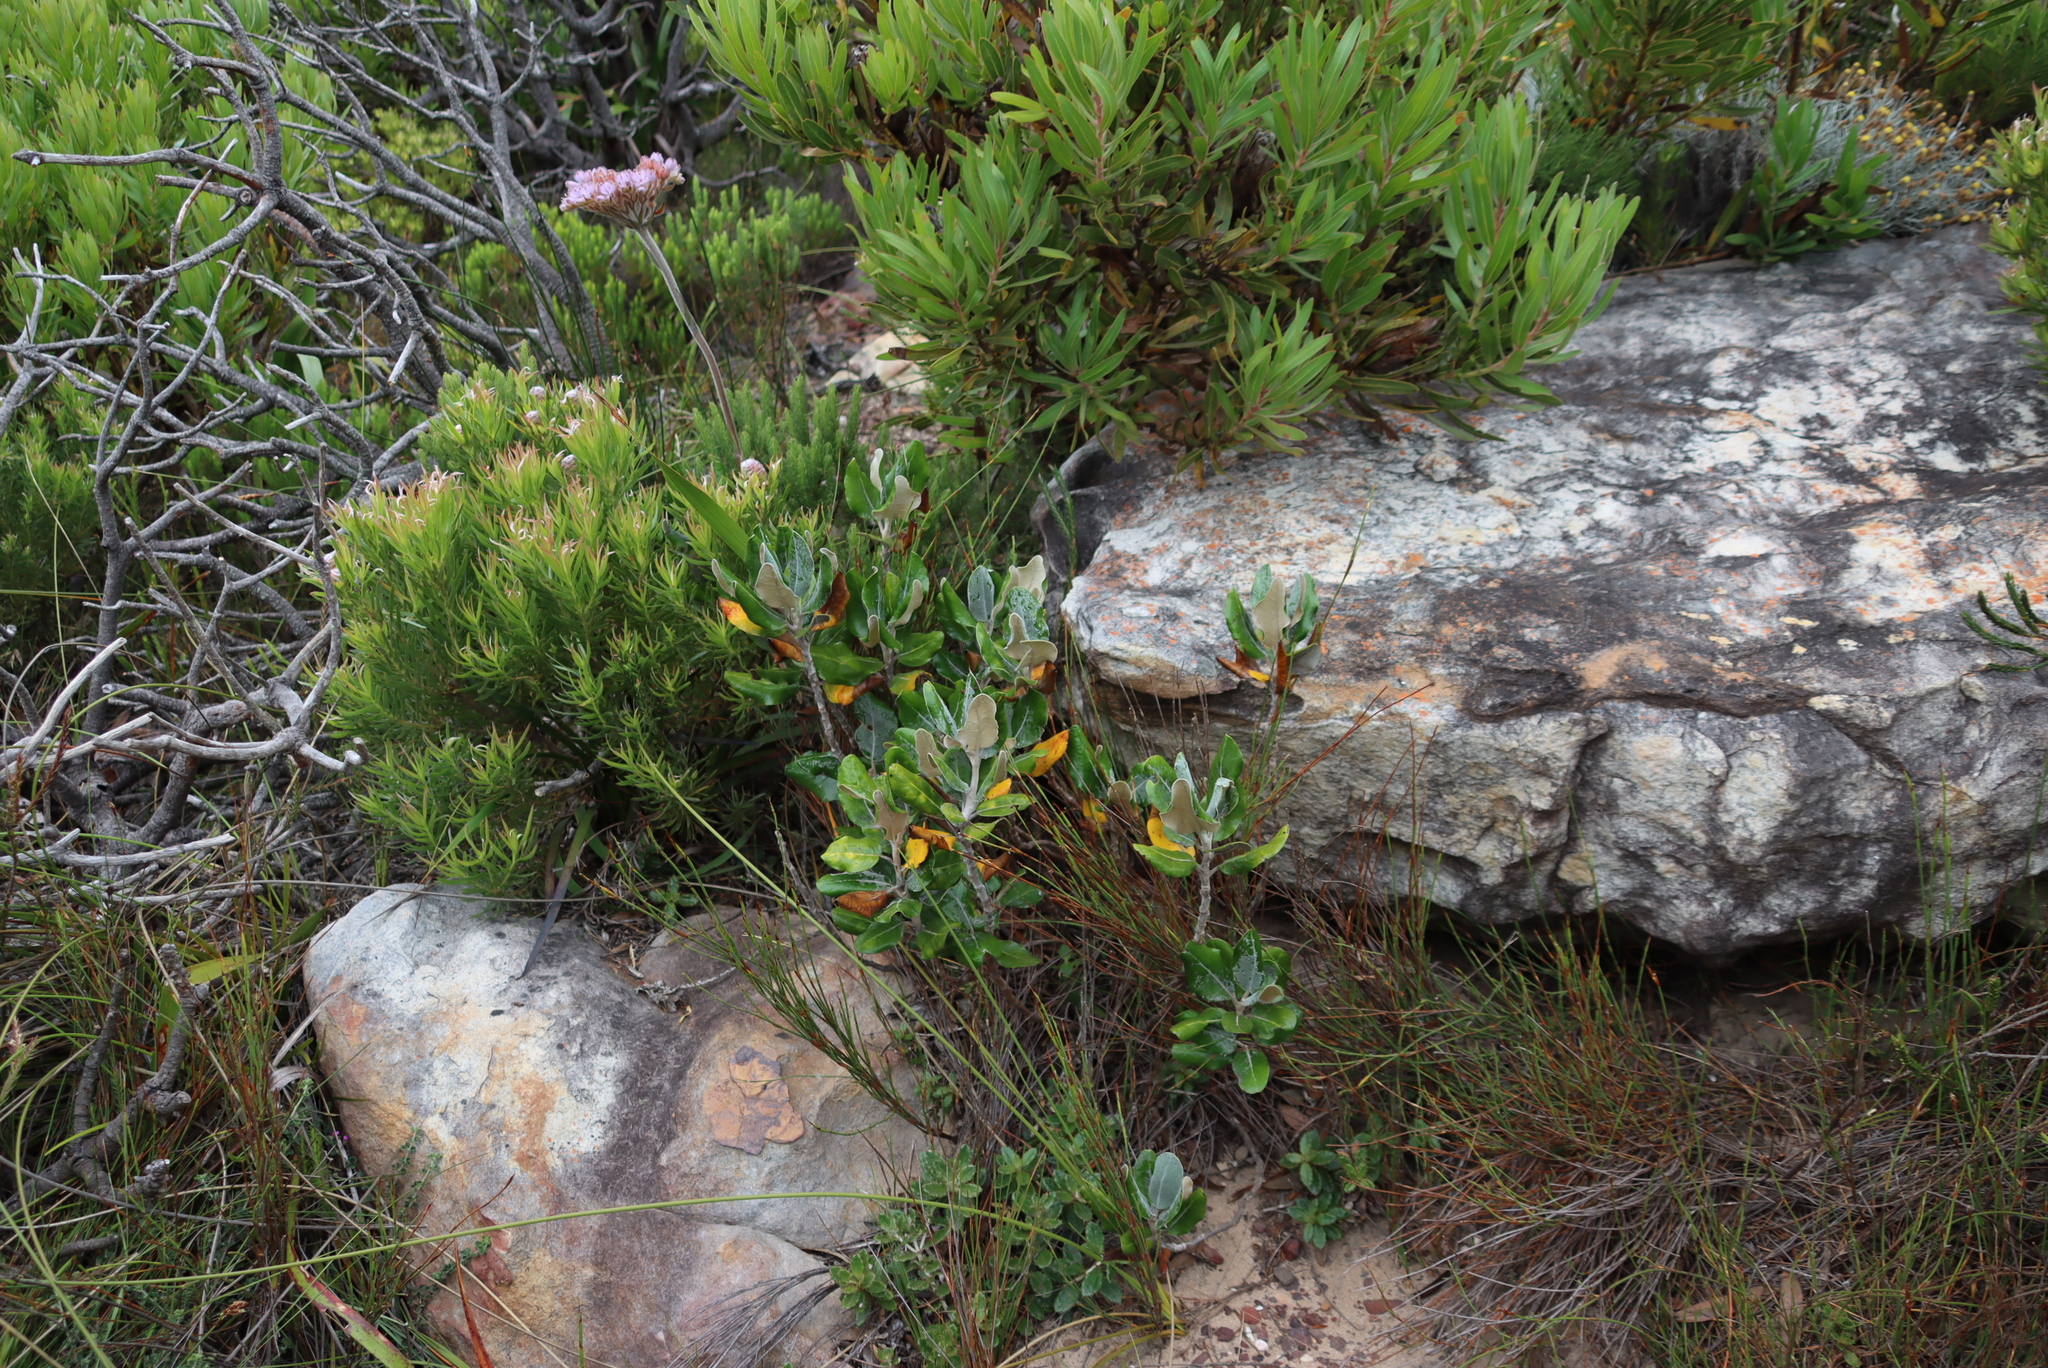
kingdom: Plantae
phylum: Tracheophyta
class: Magnoliopsida
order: Asterales
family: Asteraceae
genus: Capelio
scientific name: Capelio tabularis
